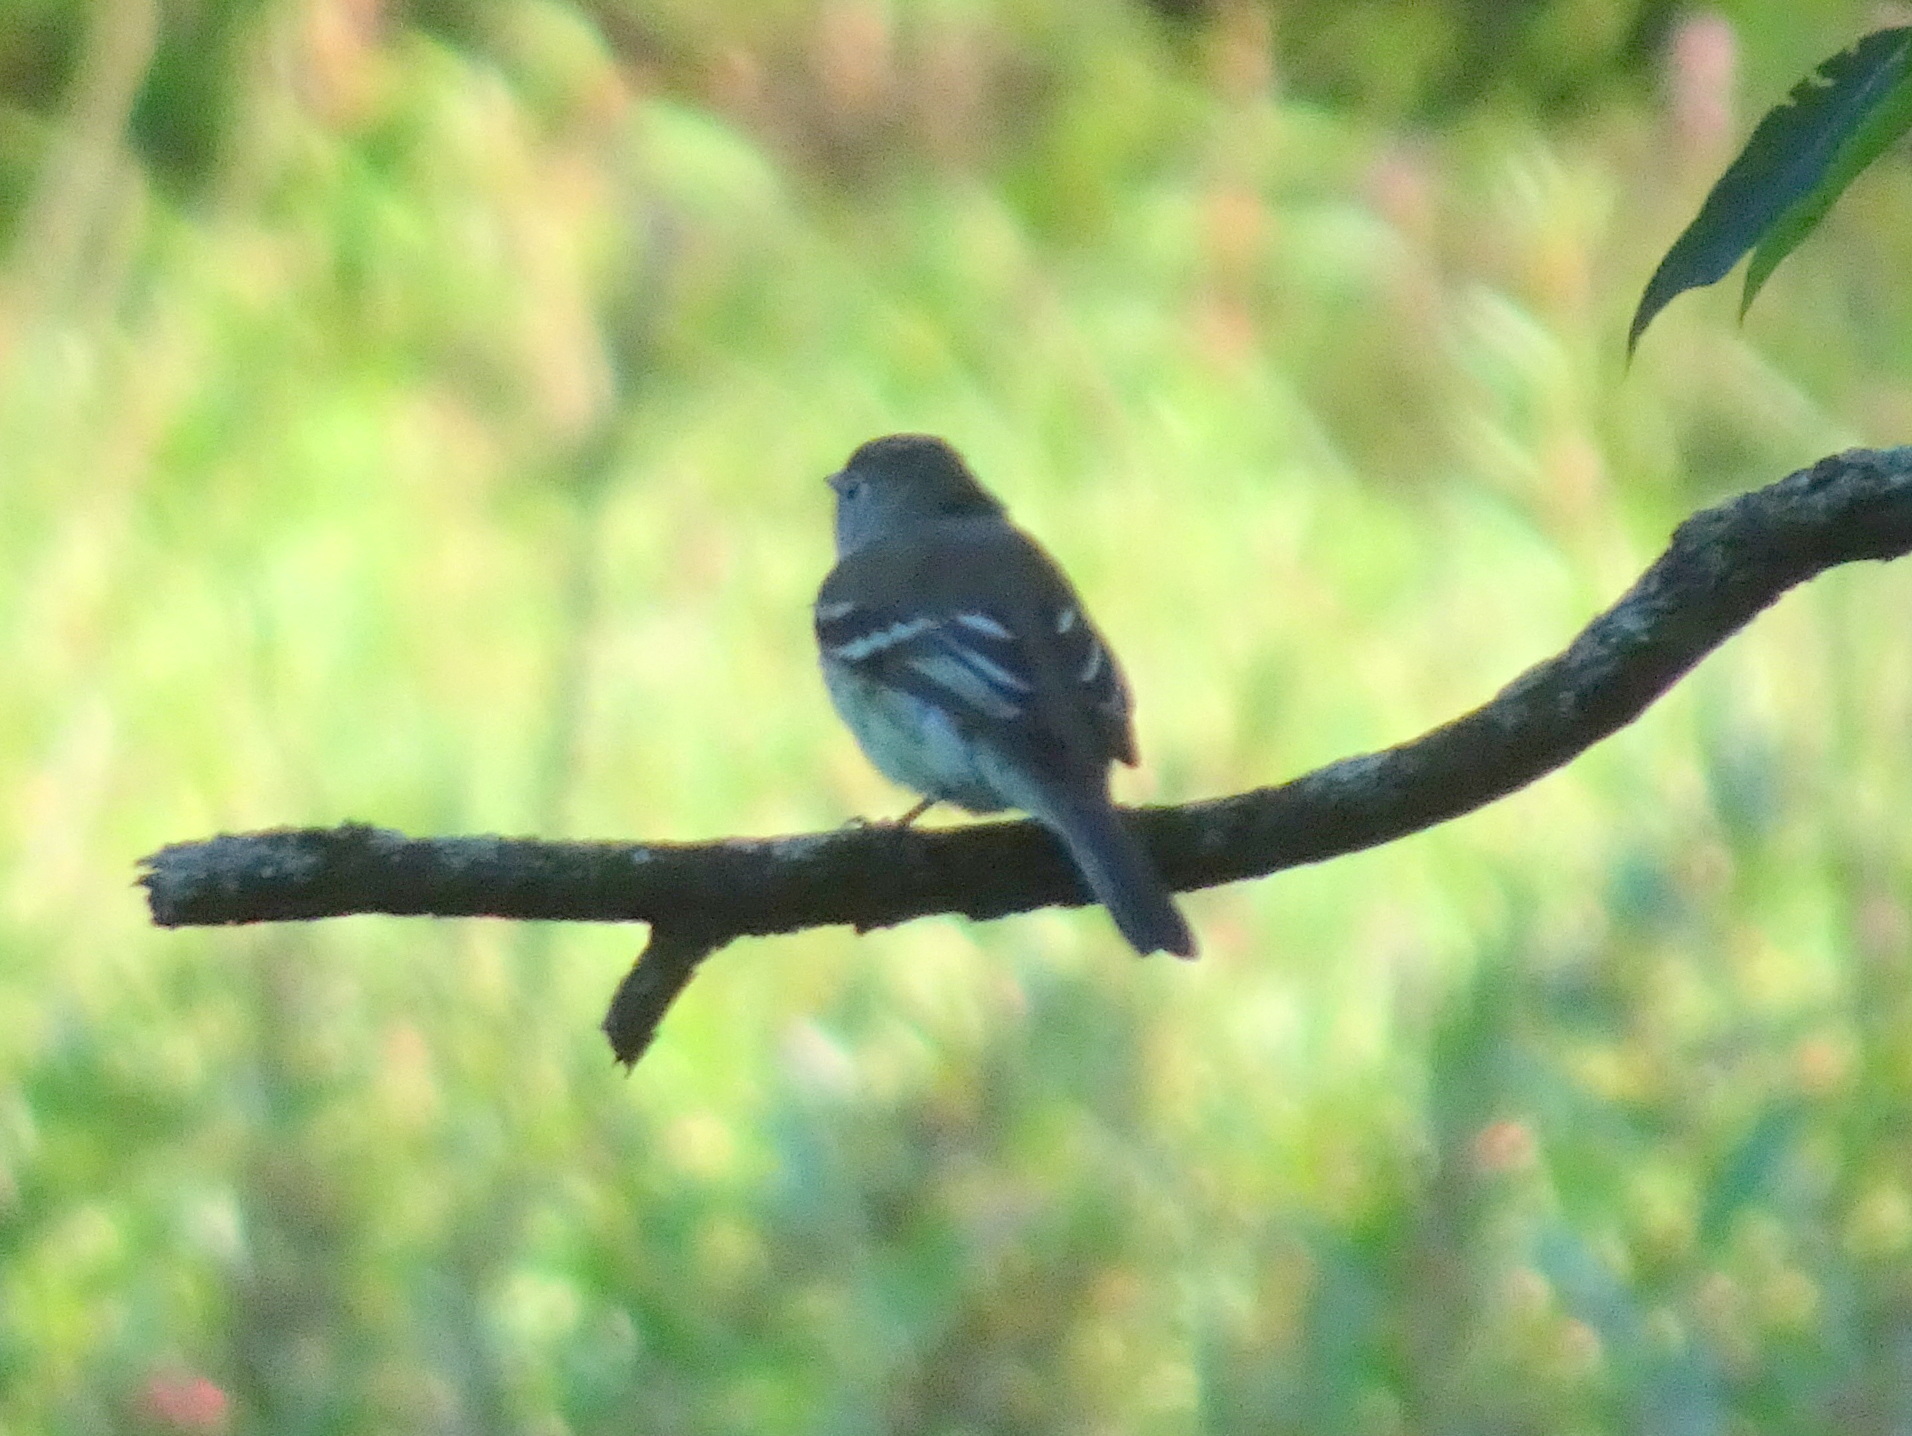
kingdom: Animalia
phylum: Chordata
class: Aves
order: Passeriformes
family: Tyrannidae
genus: Empidonax
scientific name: Empidonax minimus
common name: Least flycatcher
